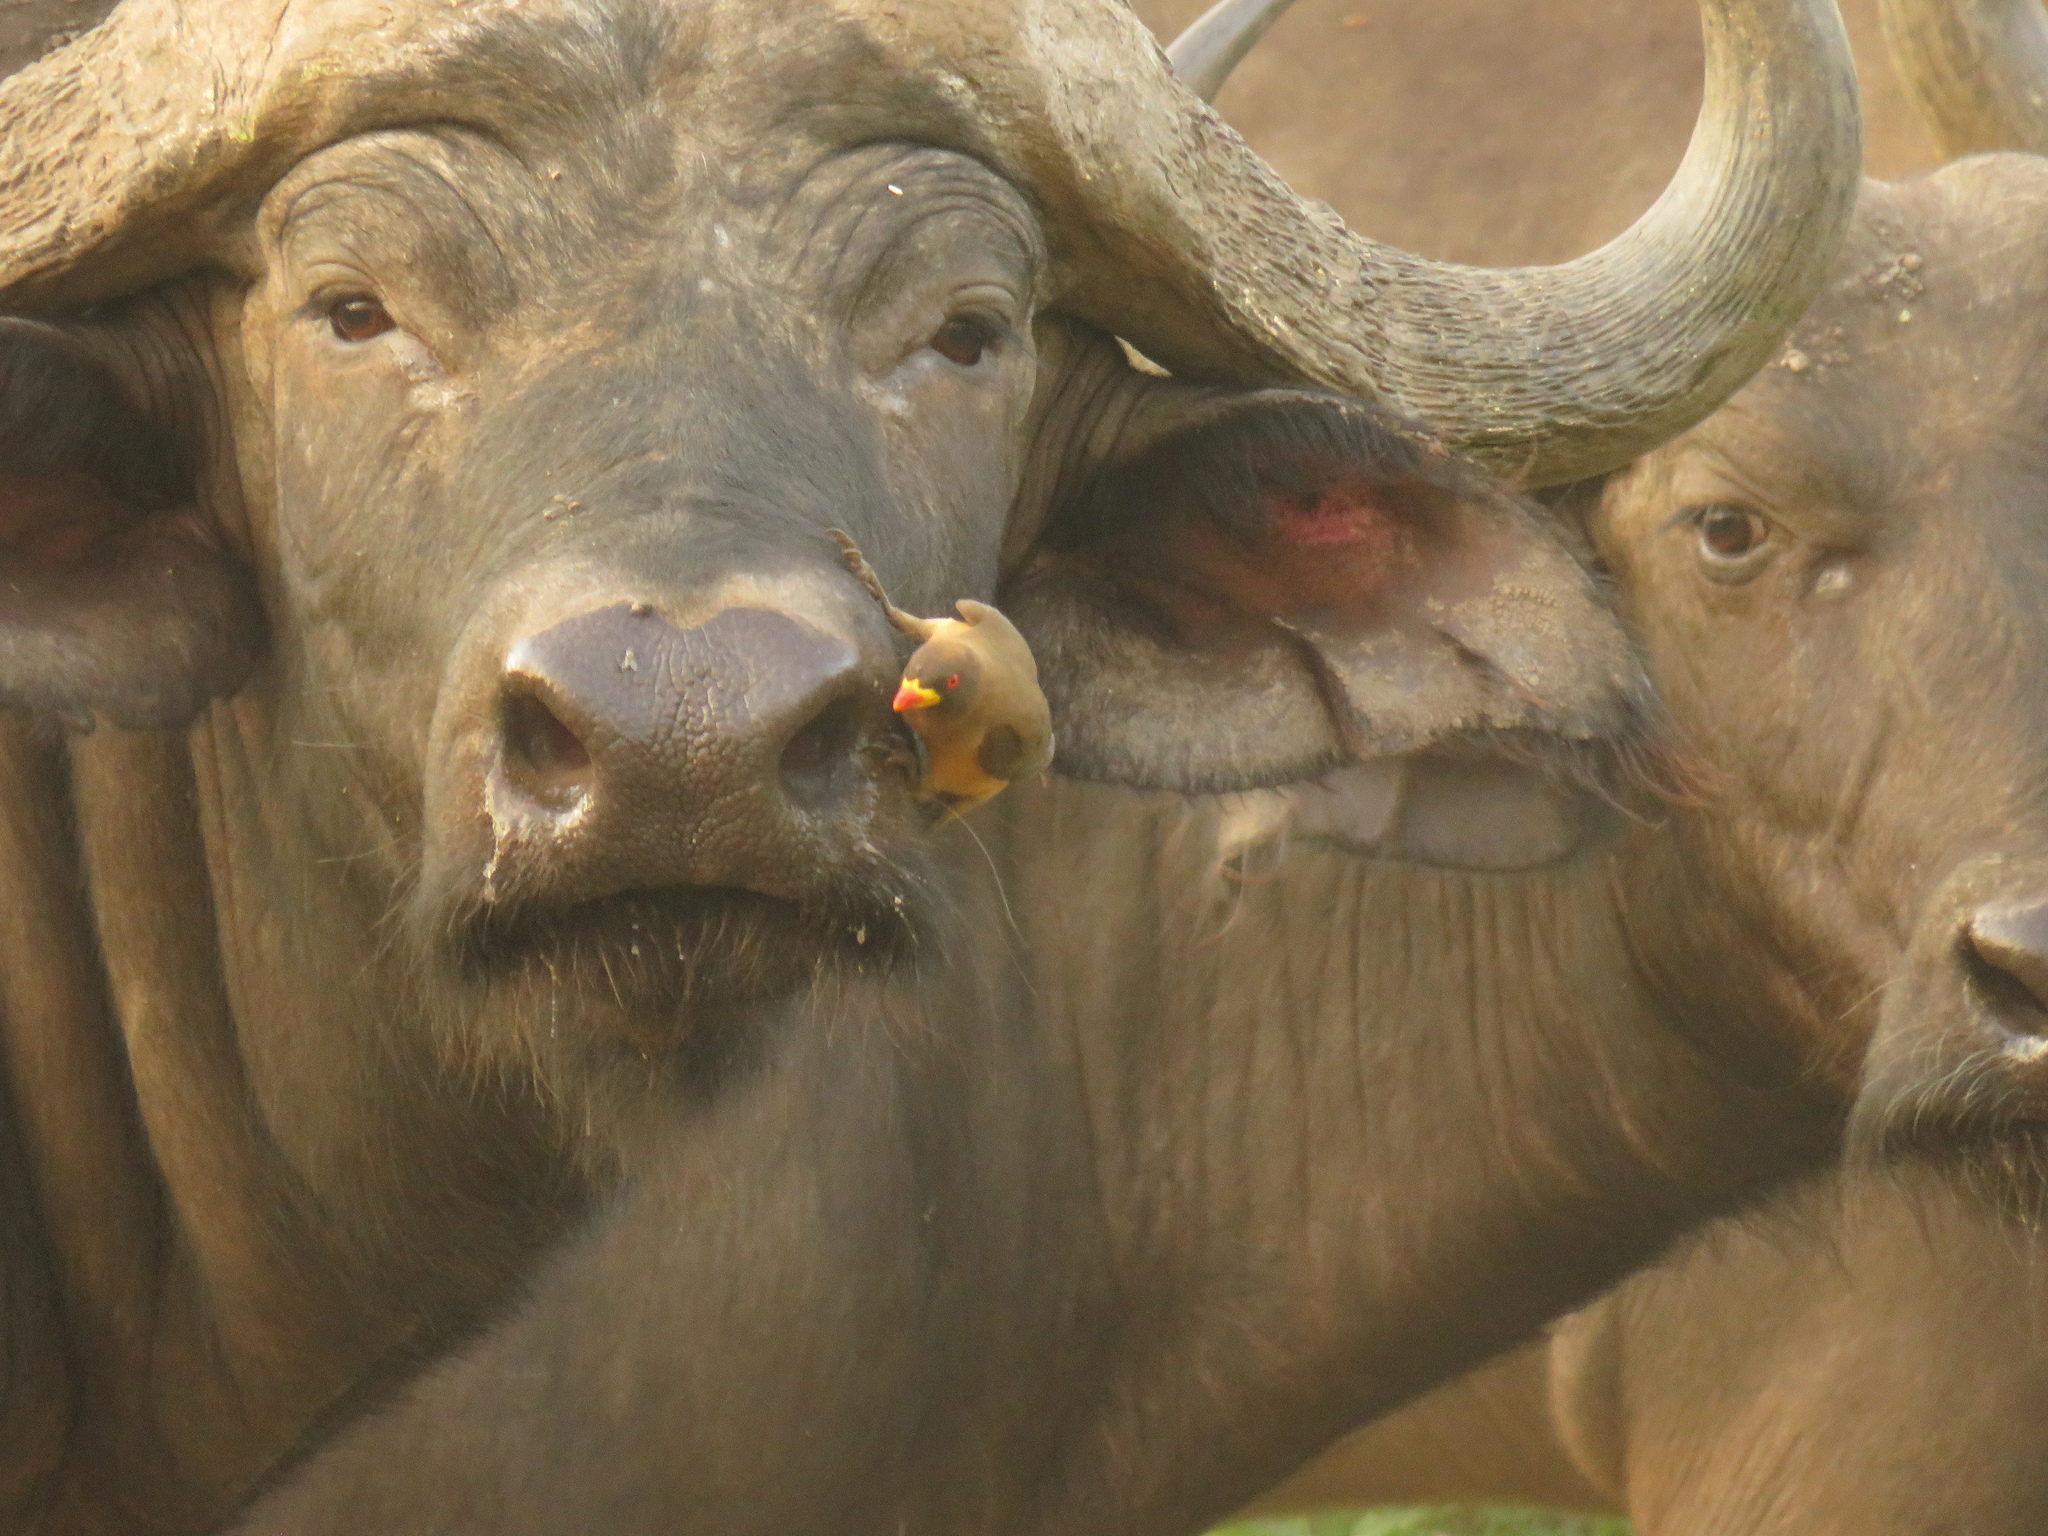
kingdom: Animalia
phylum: Chordata
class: Aves
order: Passeriformes
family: Buphagidae
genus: Buphagus
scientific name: Buphagus africanus
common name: Yellow-billed oxpecker
